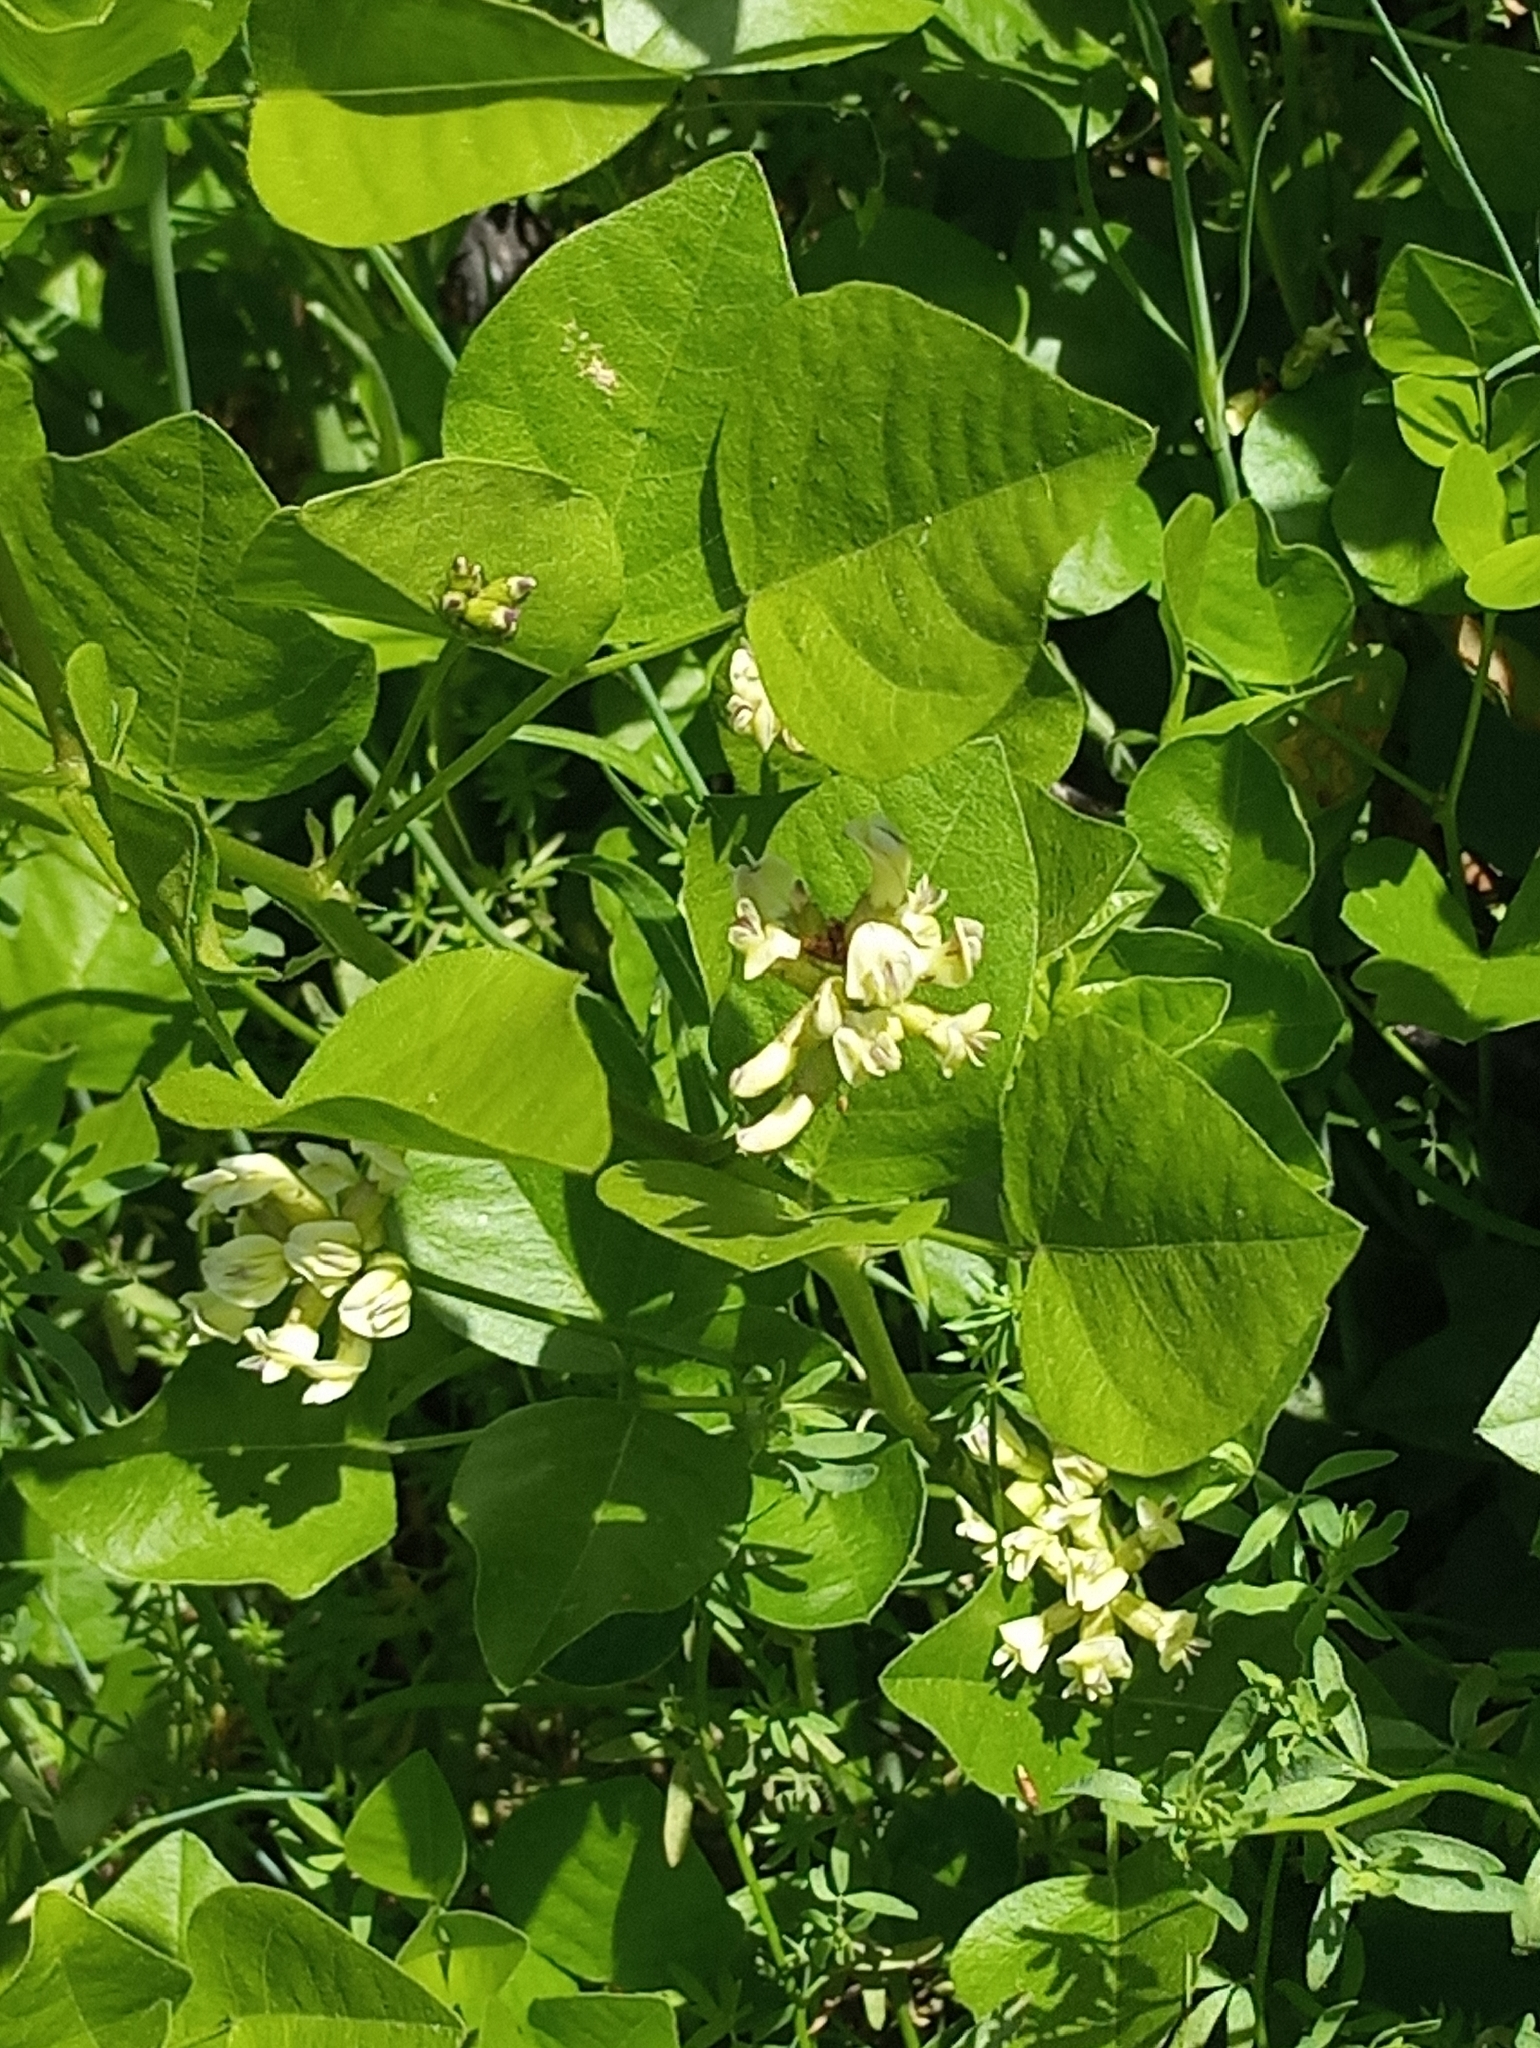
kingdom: Plantae
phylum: Tracheophyta
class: Magnoliopsida
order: Fabales
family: Fabaceae
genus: Rupertia
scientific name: Rupertia physodes
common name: California-tea
